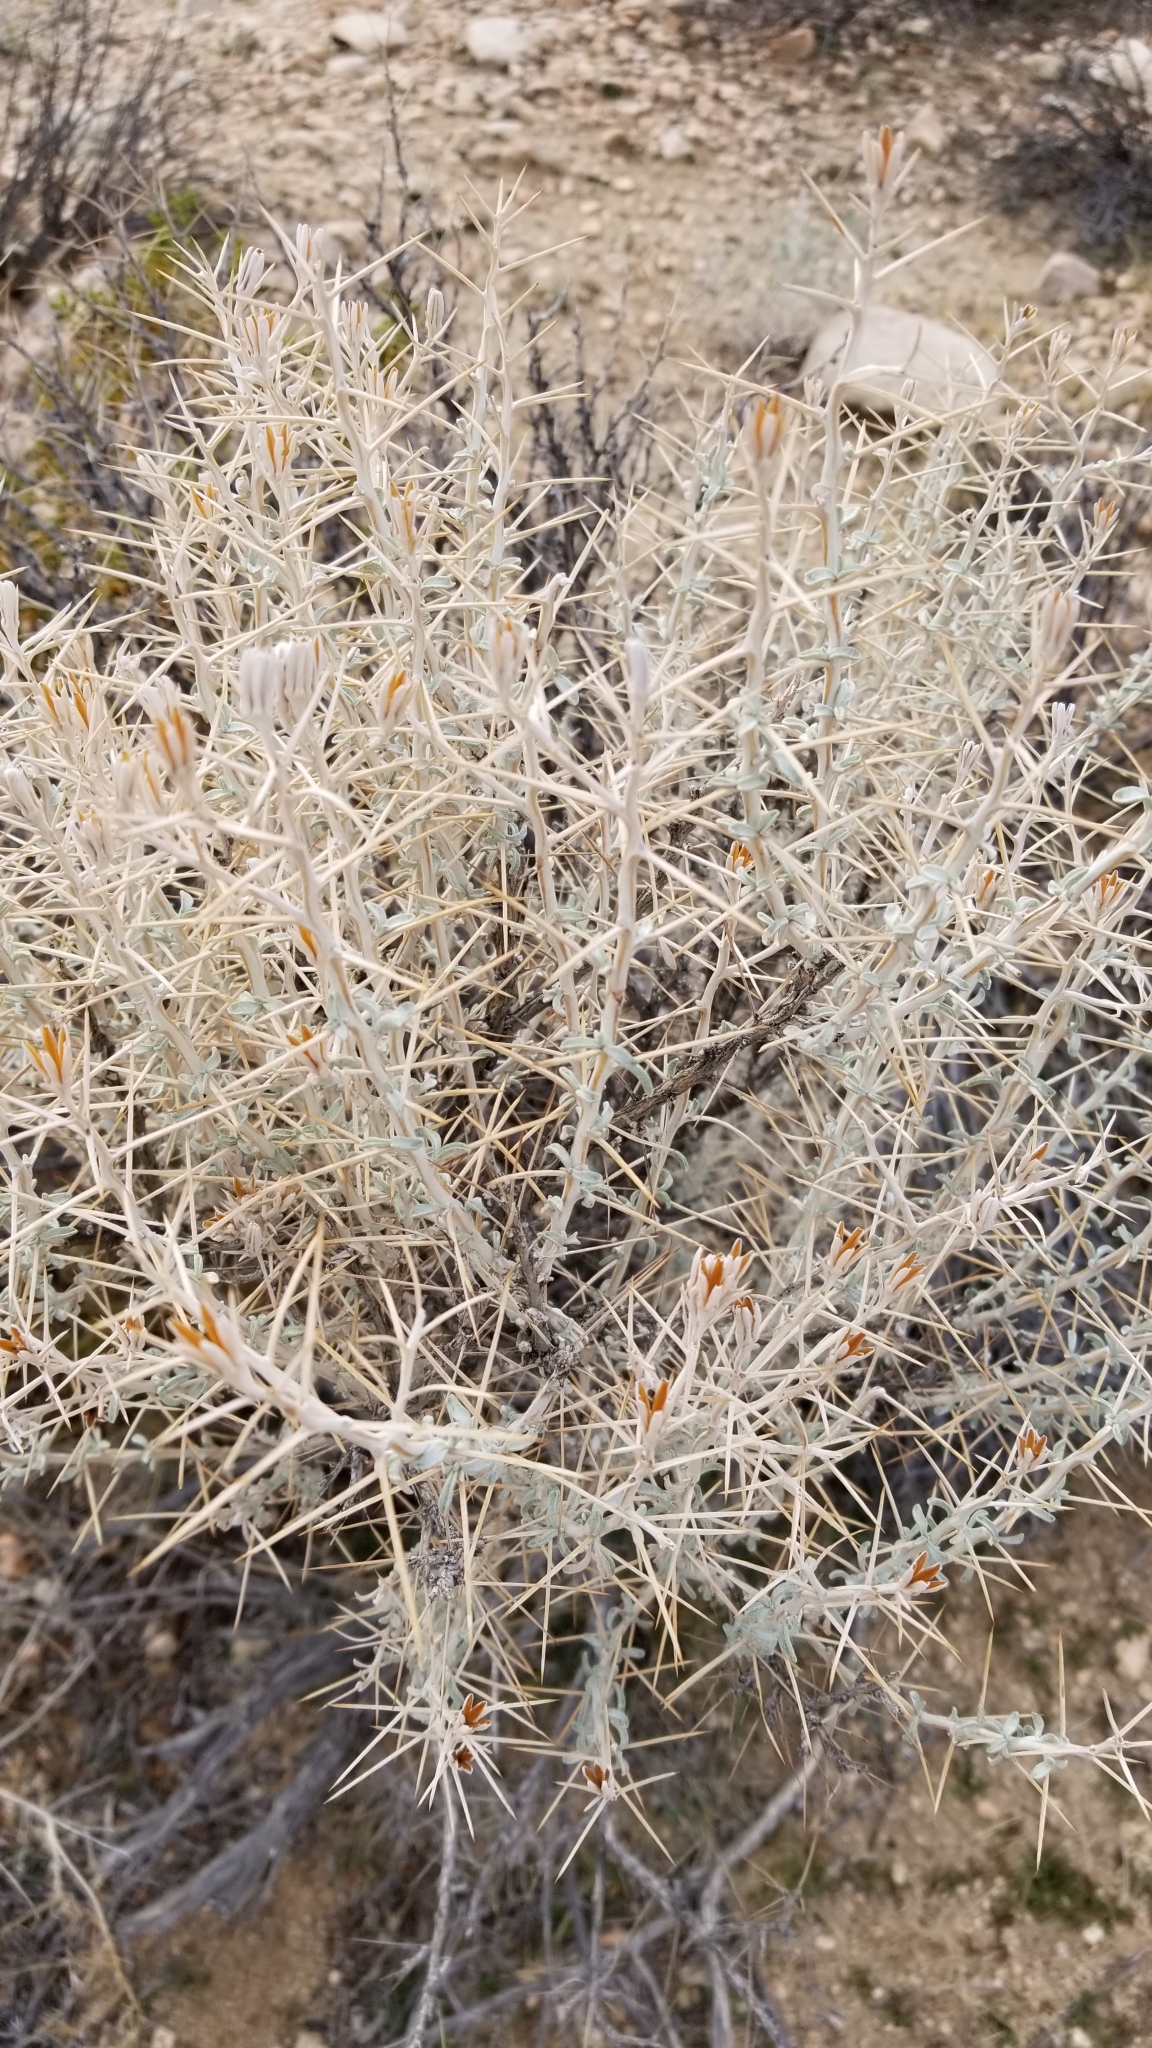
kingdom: Plantae
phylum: Tracheophyta
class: Magnoliopsida
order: Asterales
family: Asteraceae
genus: Tetradymia
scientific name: Tetradymia stenolepis
